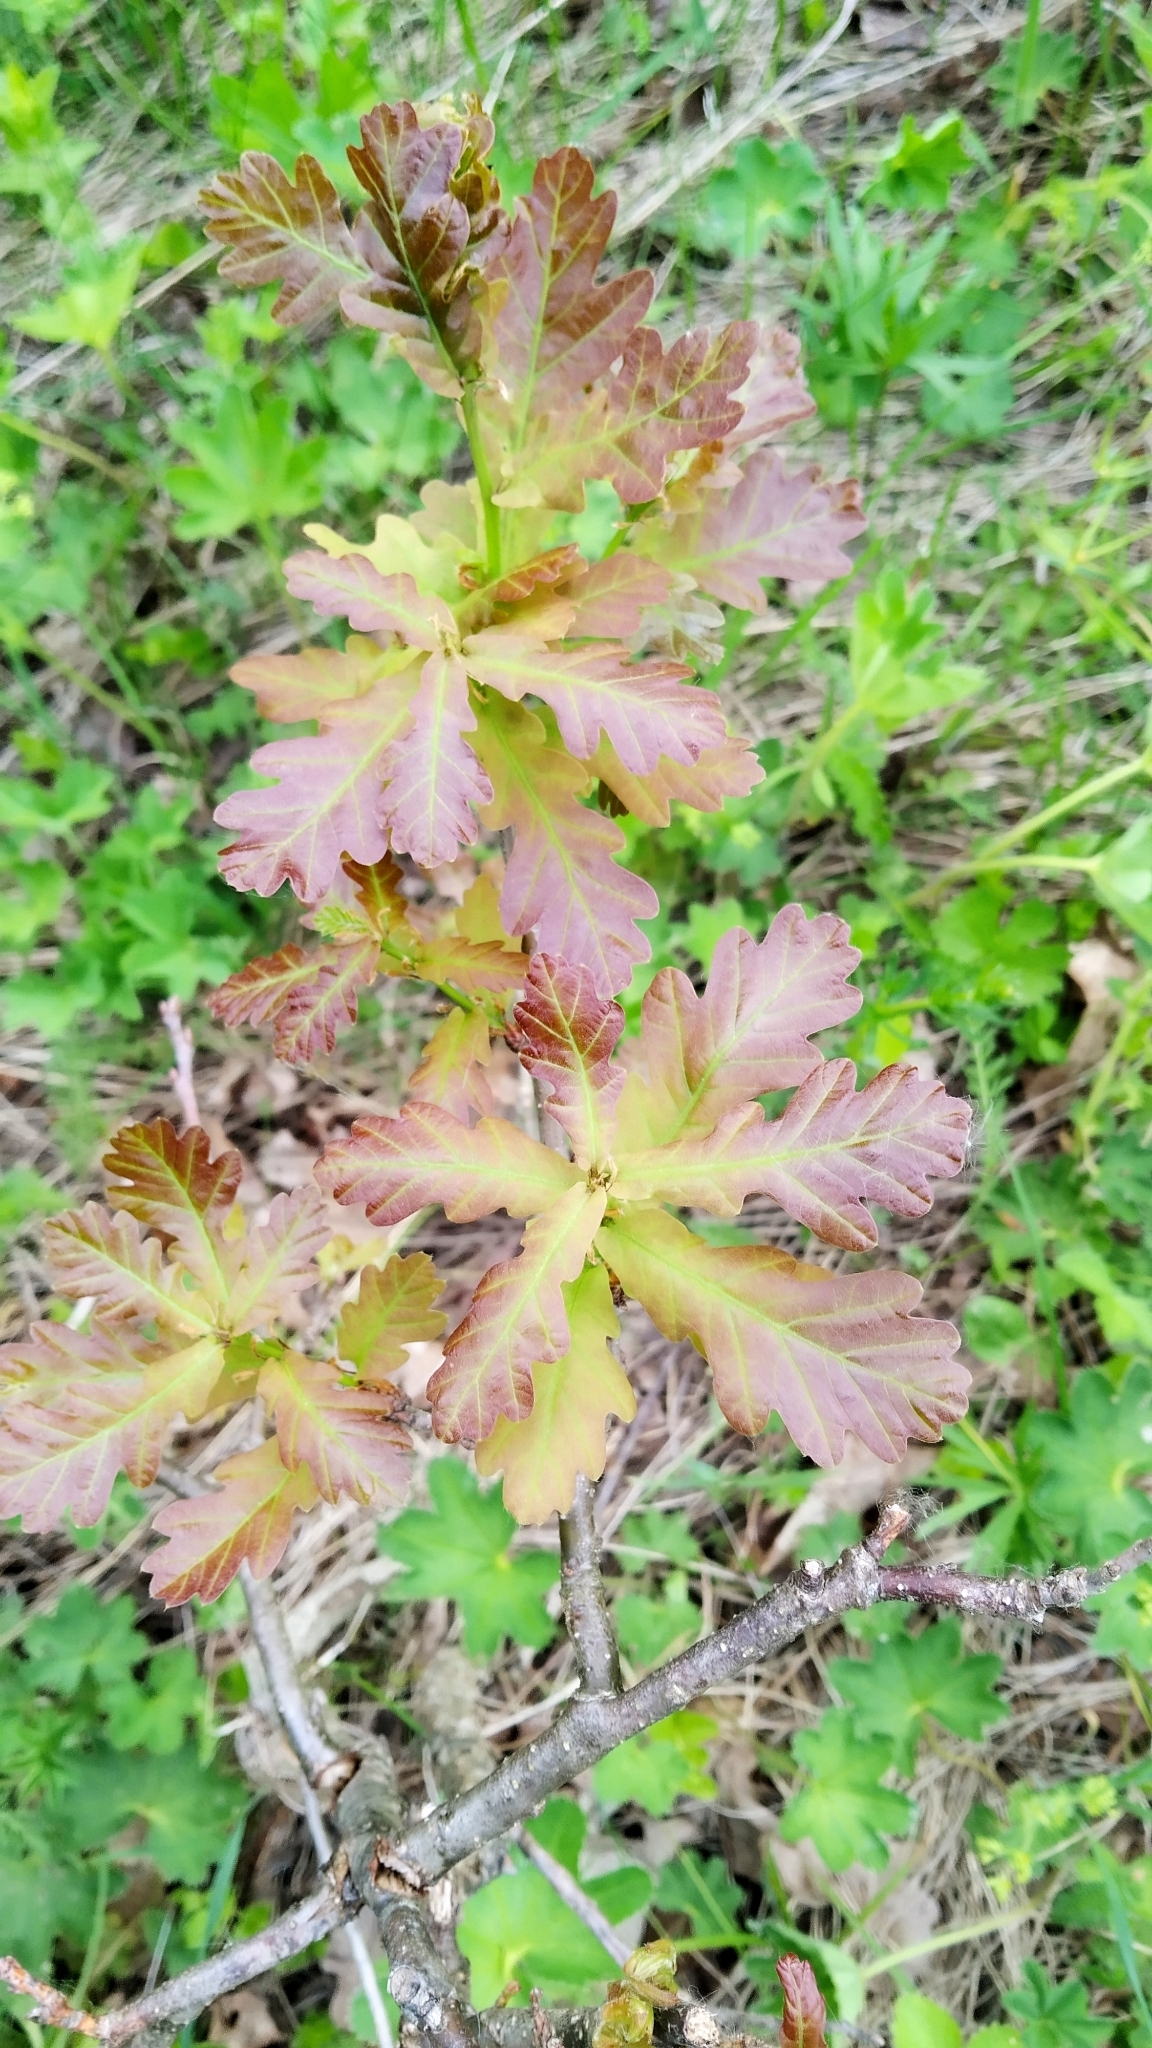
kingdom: Plantae
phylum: Tracheophyta
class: Magnoliopsida
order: Fagales
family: Fagaceae
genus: Quercus
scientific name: Quercus robur
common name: Pedunculate oak
